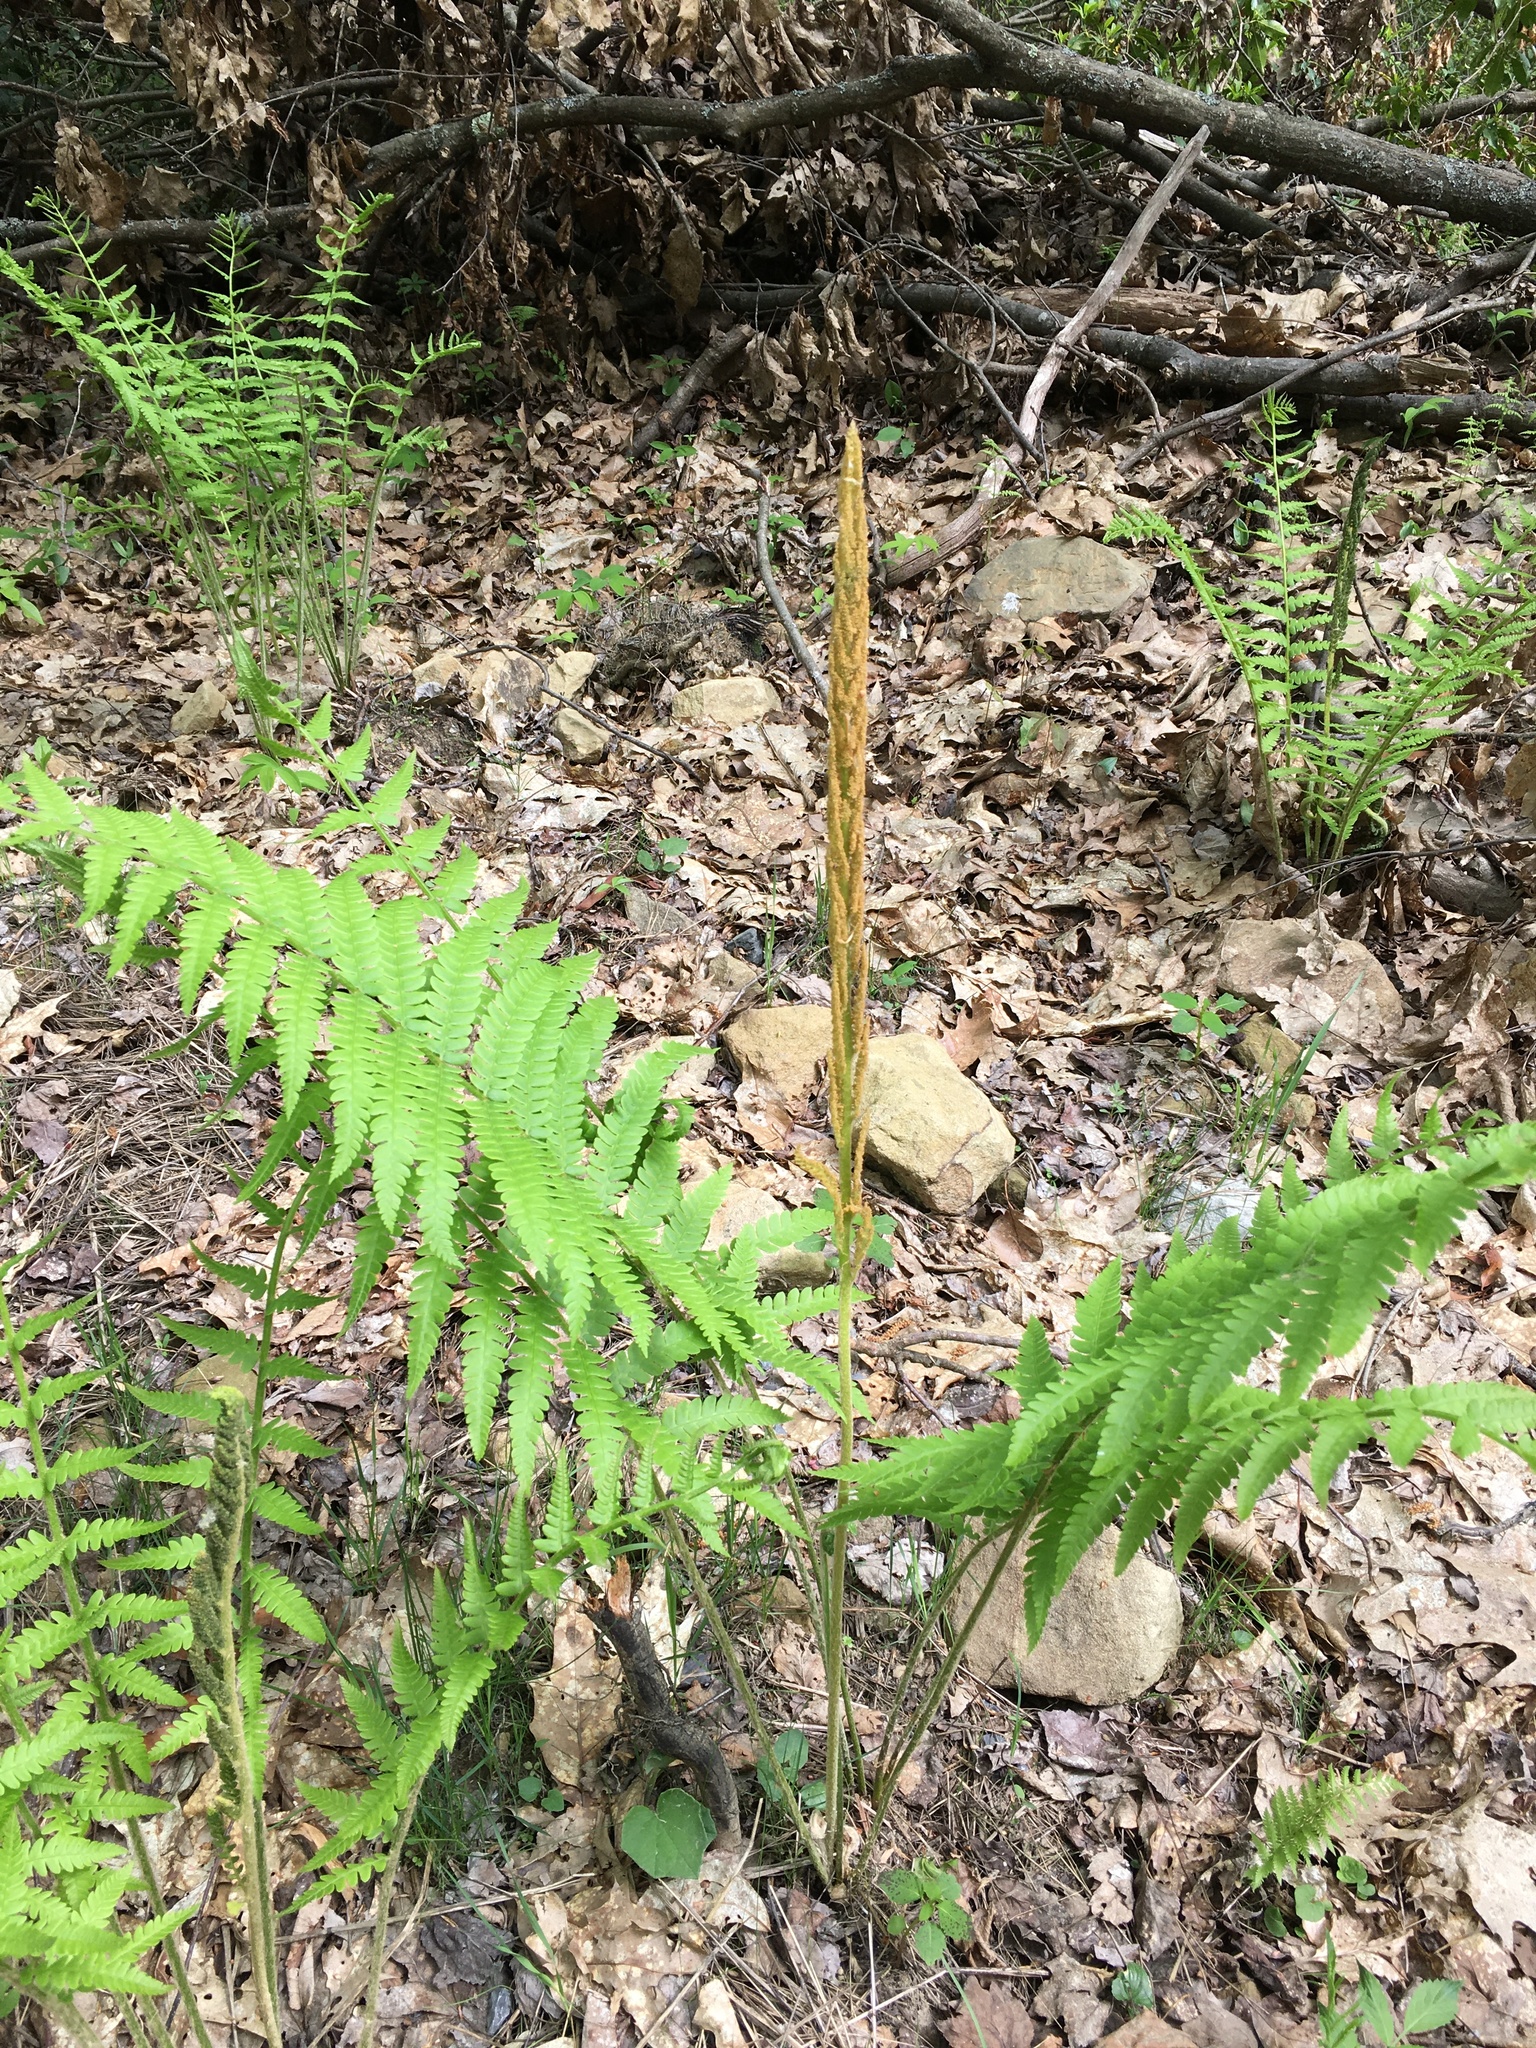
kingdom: Plantae
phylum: Tracheophyta
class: Polypodiopsida
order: Osmundales
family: Osmundaceae
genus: Osmundastrum
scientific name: Osmundastrum cinnamomeum
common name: Cinnamon fern
